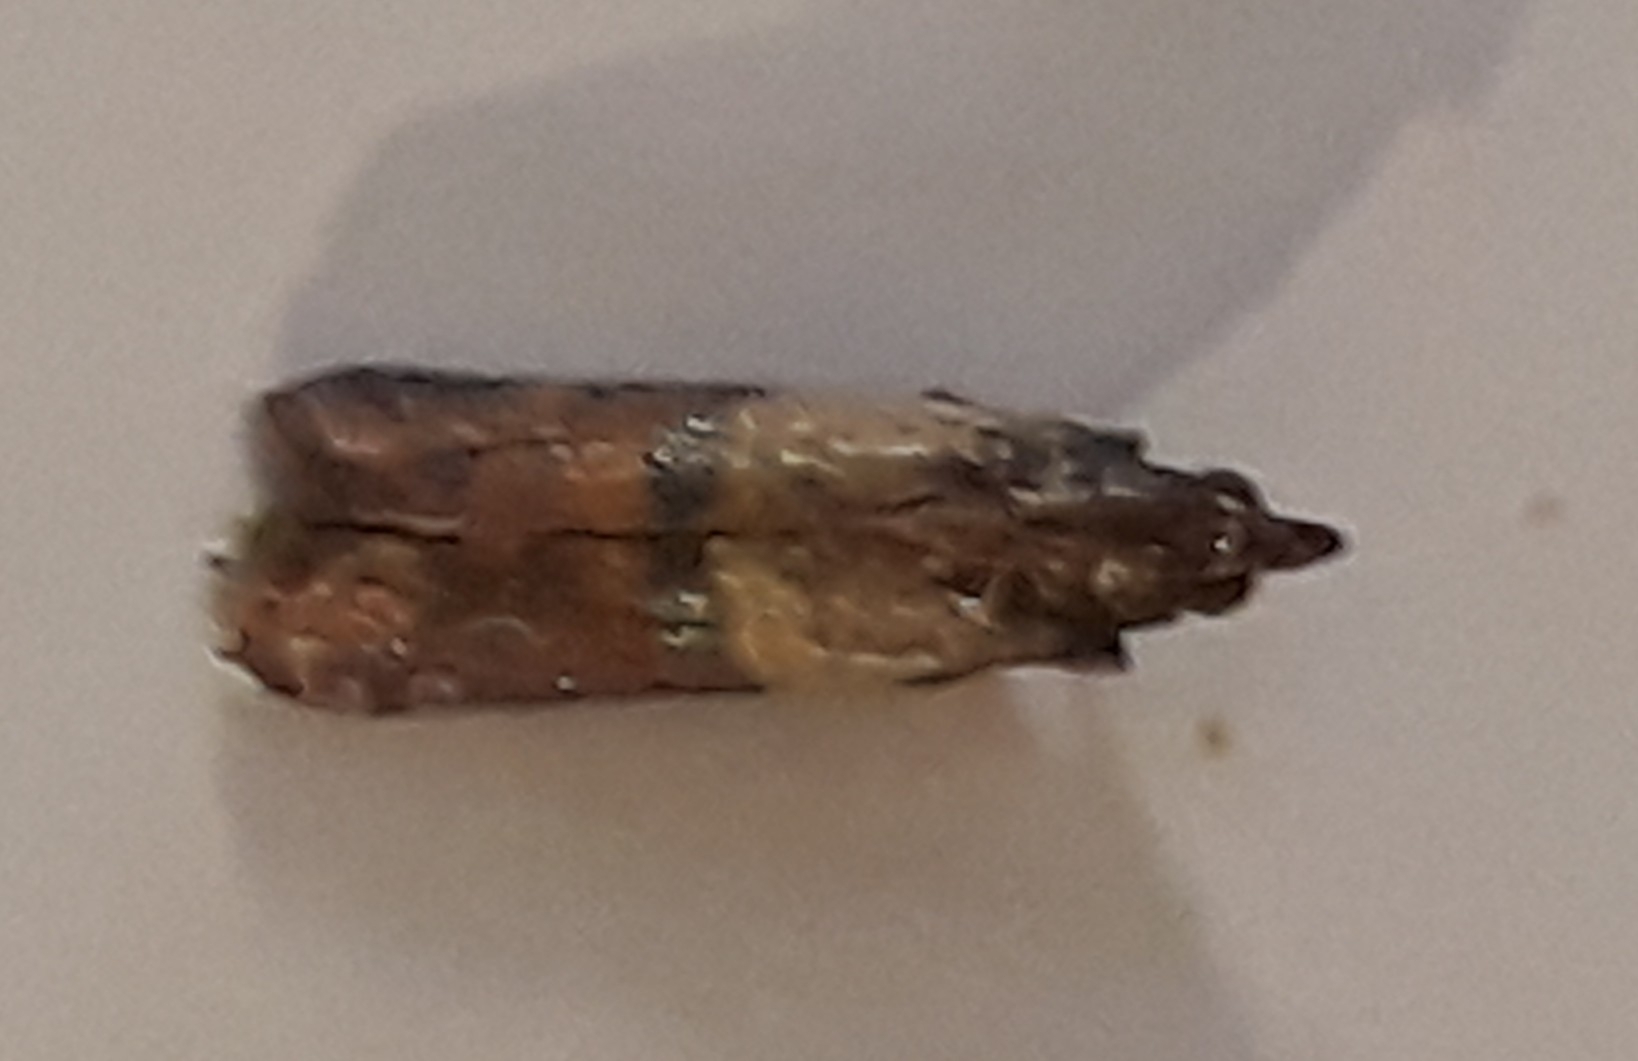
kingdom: Animalia
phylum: Arthropoda
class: Insecta
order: Lepidoptera
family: Pyralidae
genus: Plodia
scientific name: Plodia interpunctella
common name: Indian meal moth
